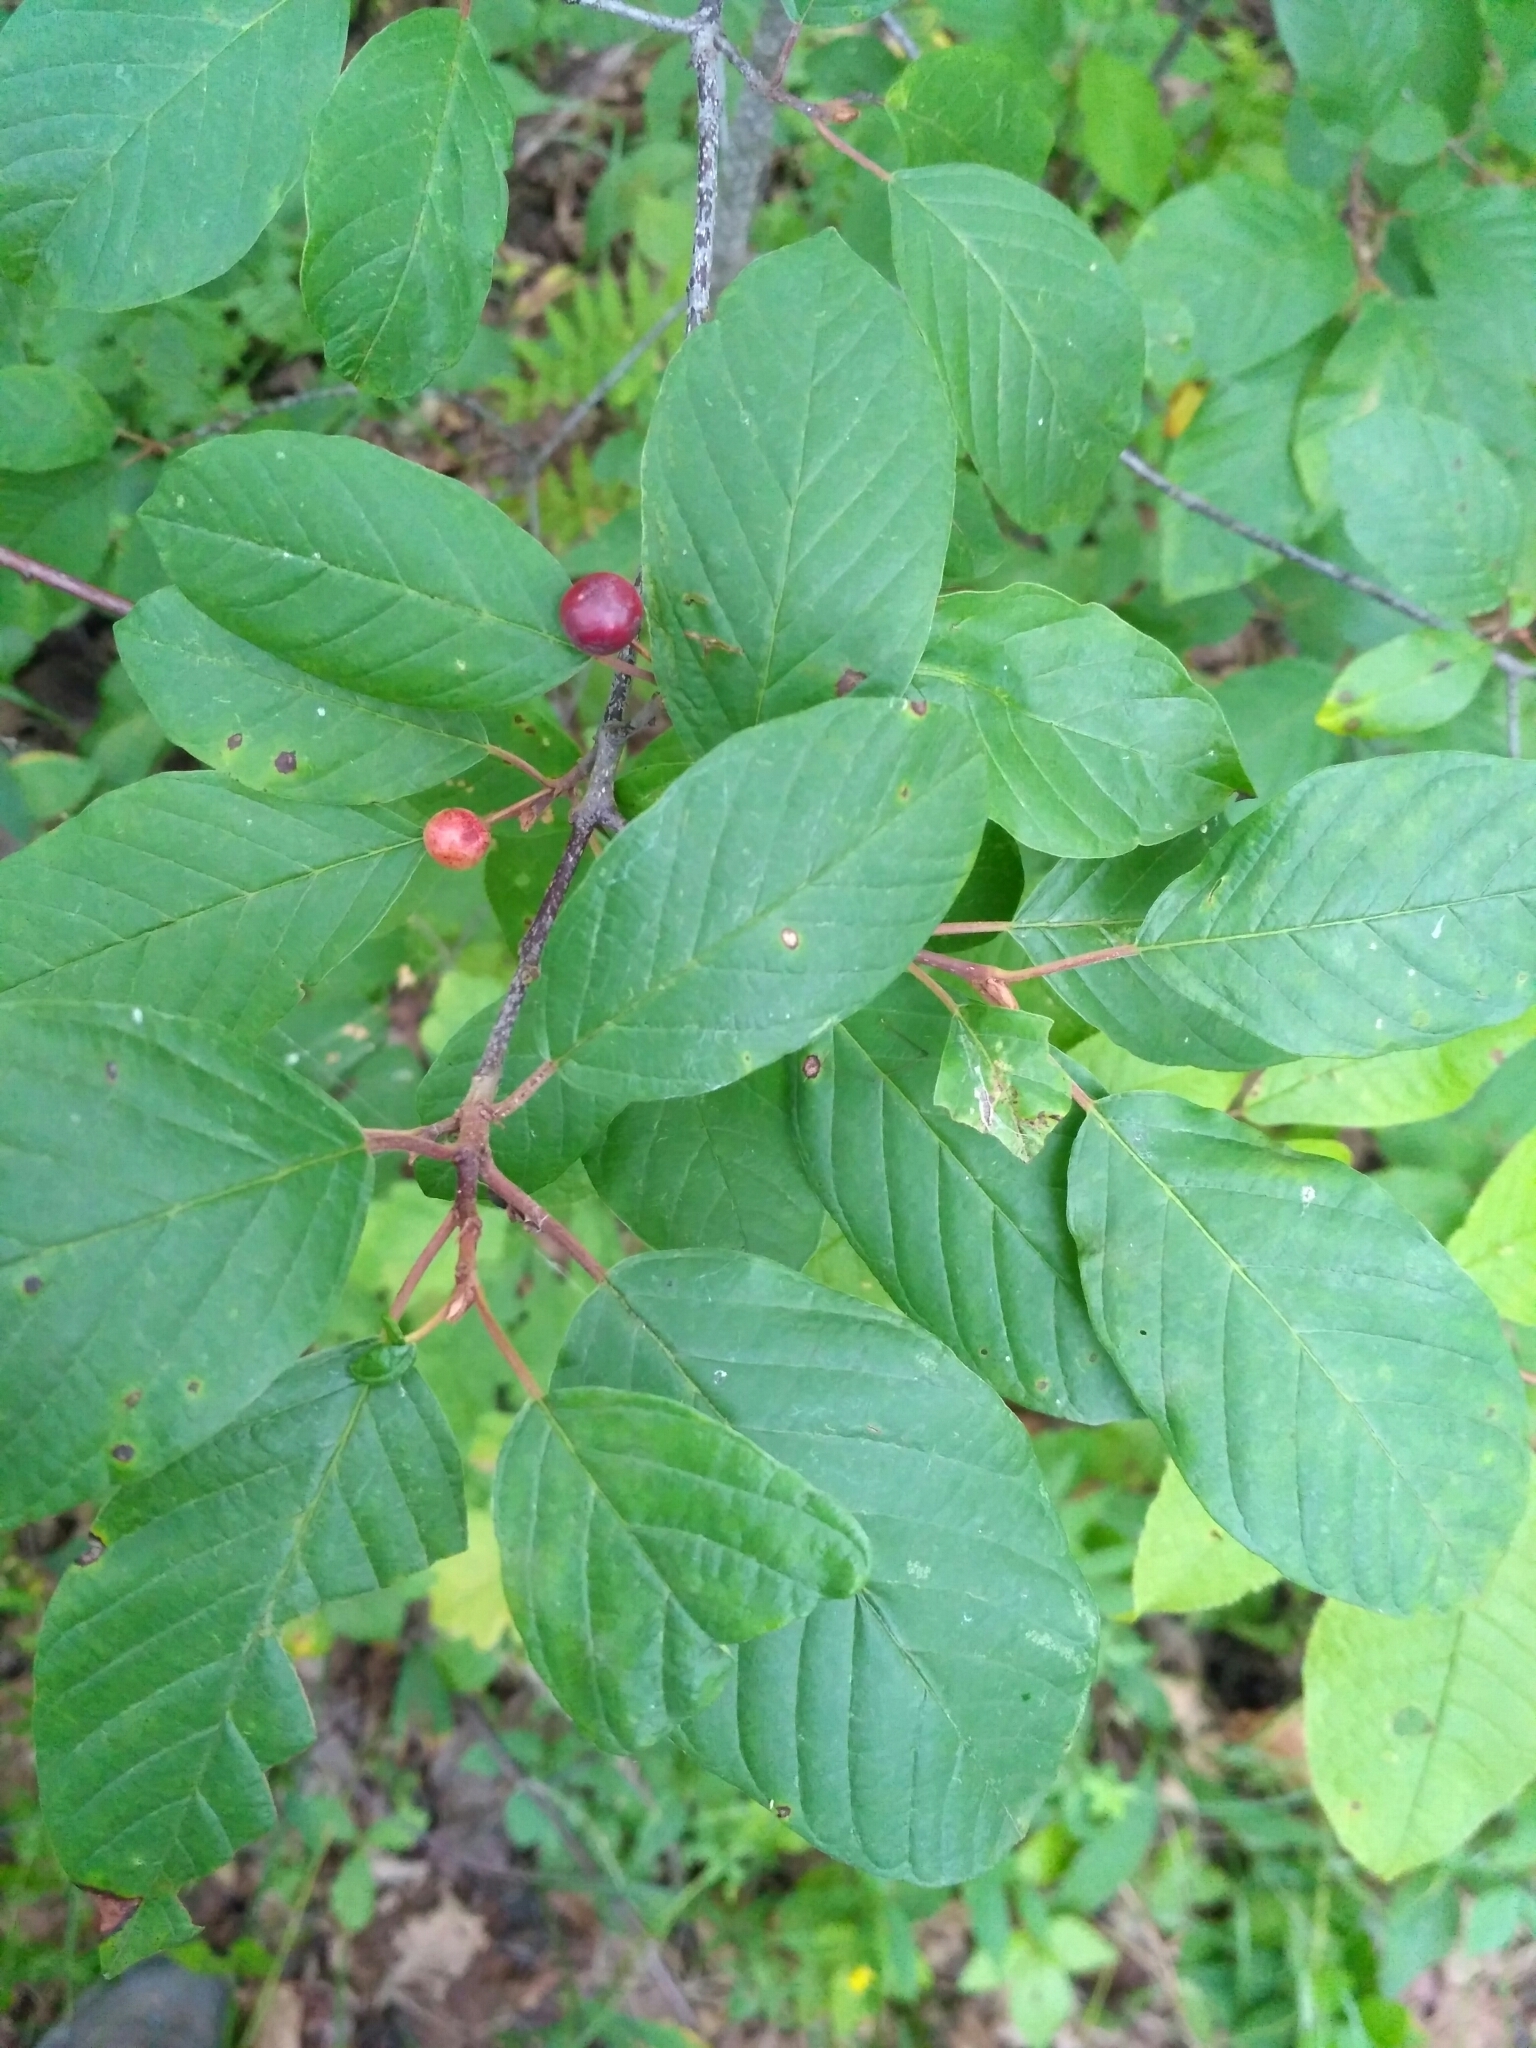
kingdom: Plantae
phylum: Tracheophyta
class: Magnoliopsida
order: Rosales
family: Rhamnaceae
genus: Frangula
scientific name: Frangula alnus
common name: Alder buckthorn
